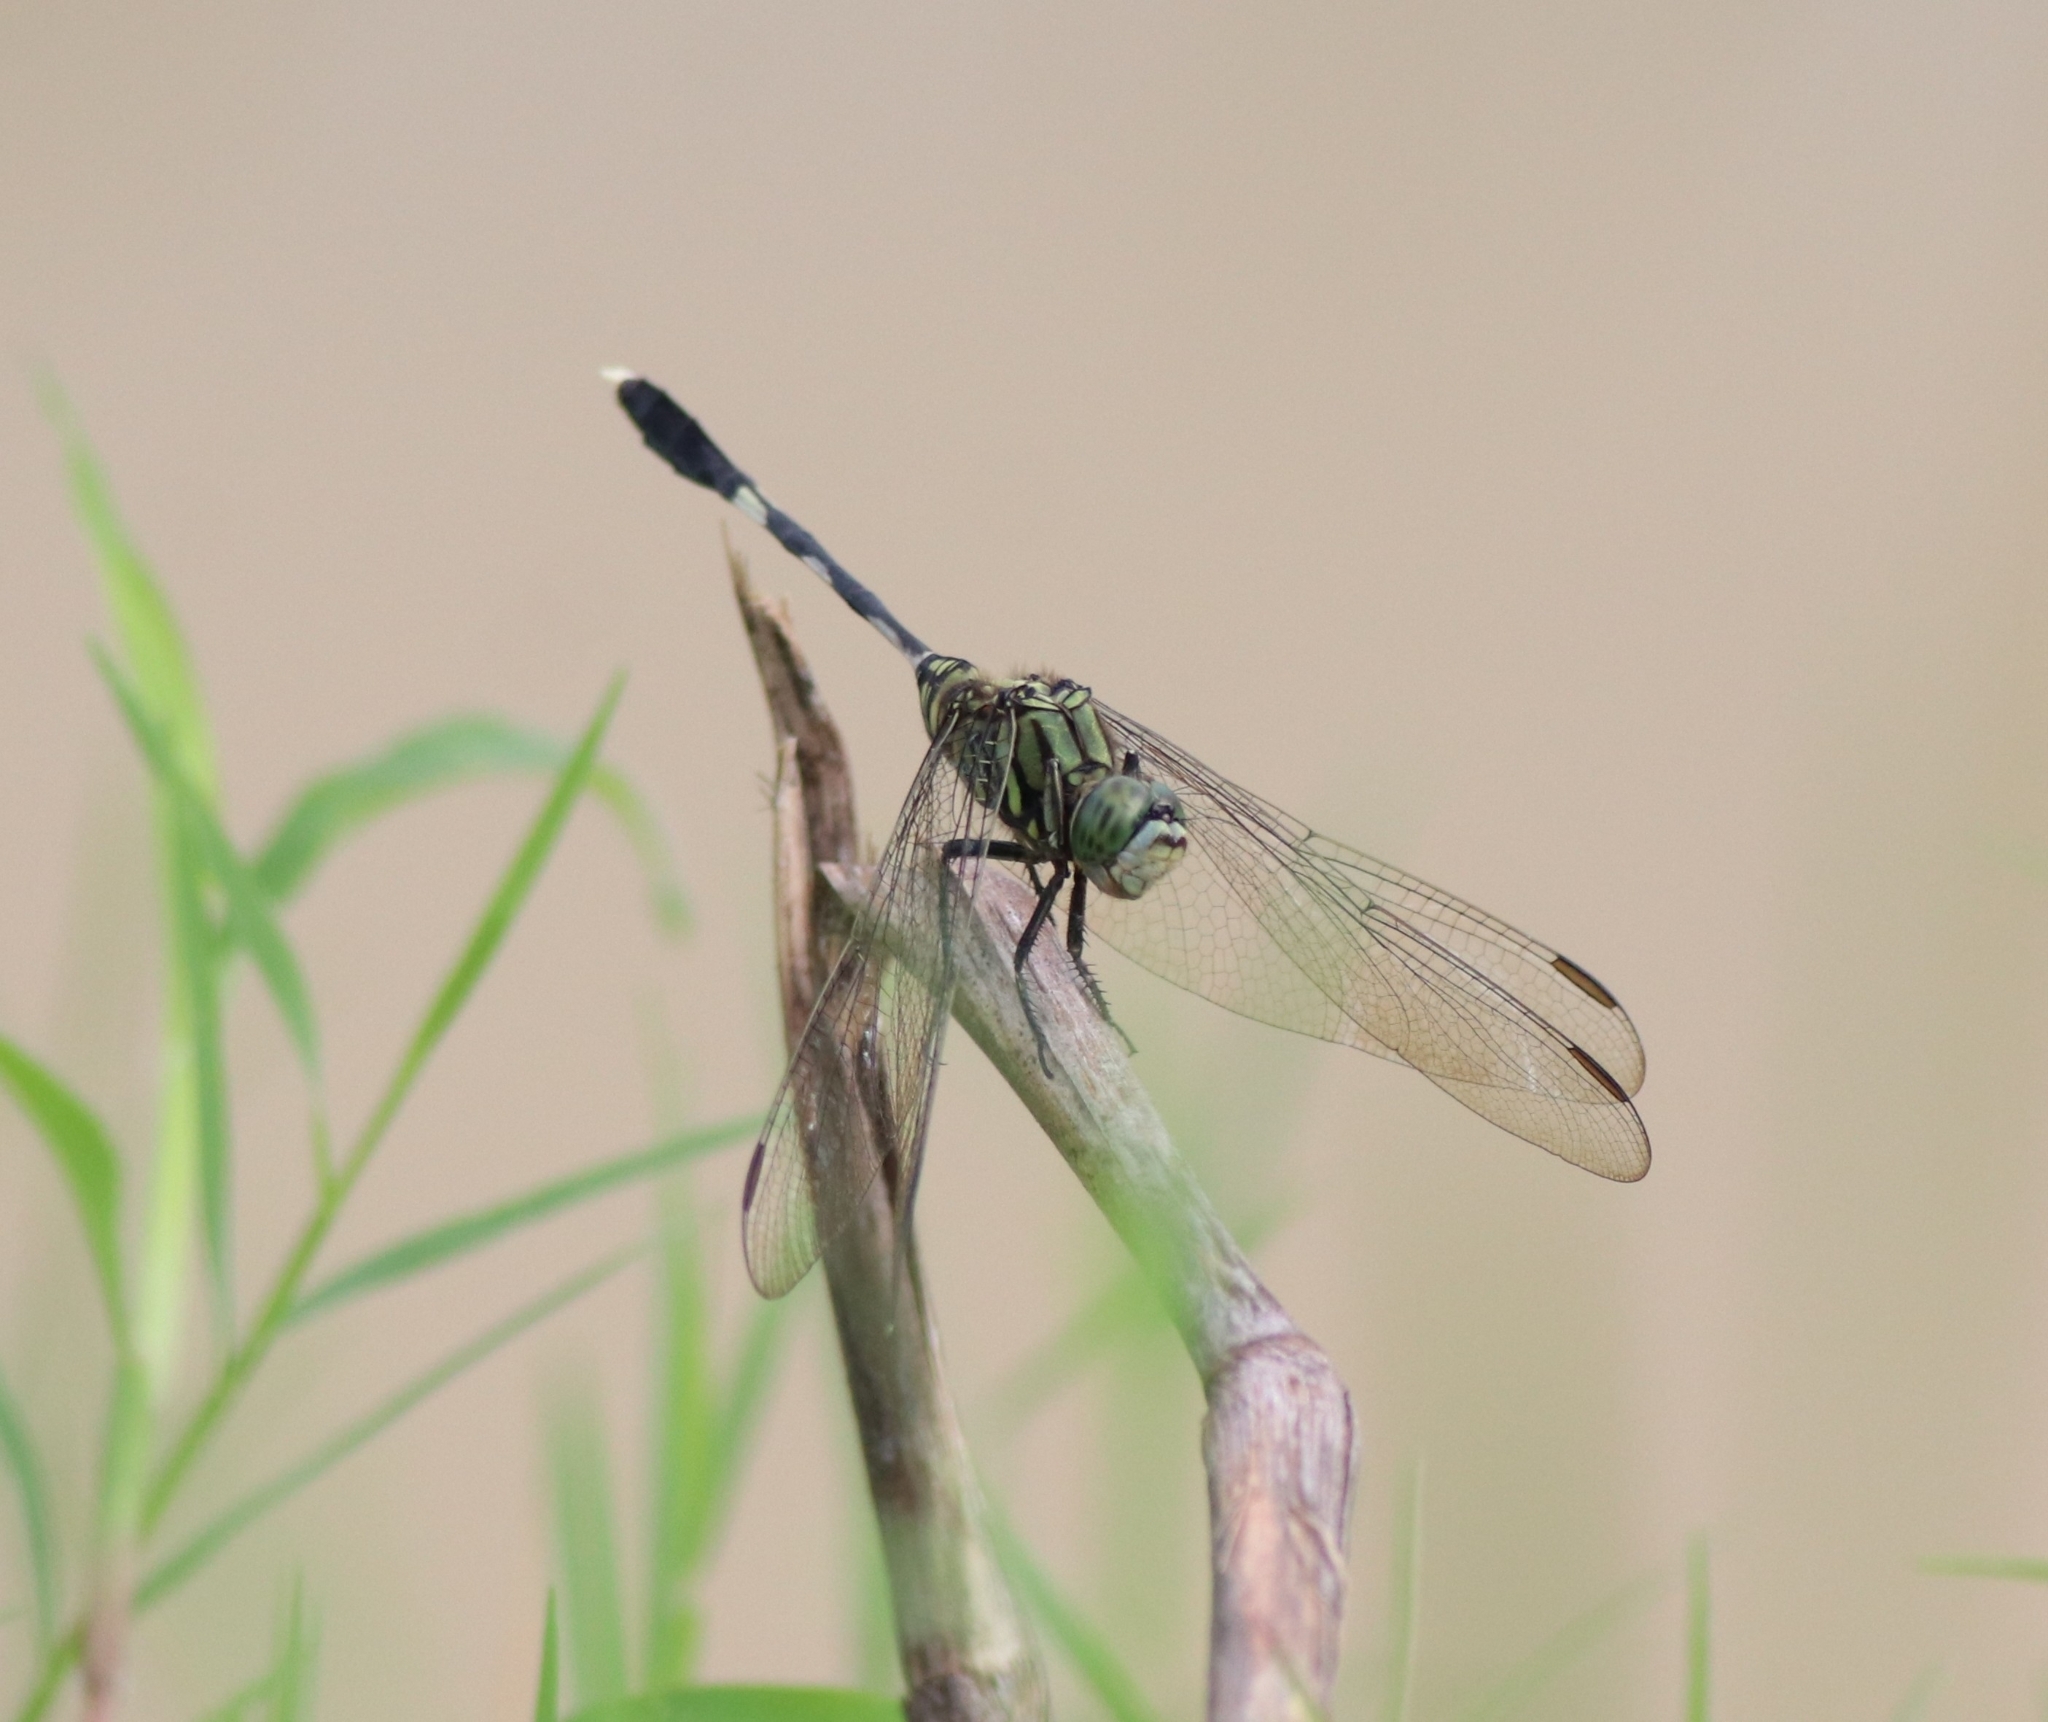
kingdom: Animalia
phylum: Arthropoda
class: Insecta
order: Odonata
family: Libellulidae
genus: Orthetrum
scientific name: Orthetrum sabina
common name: Slender skimmer
